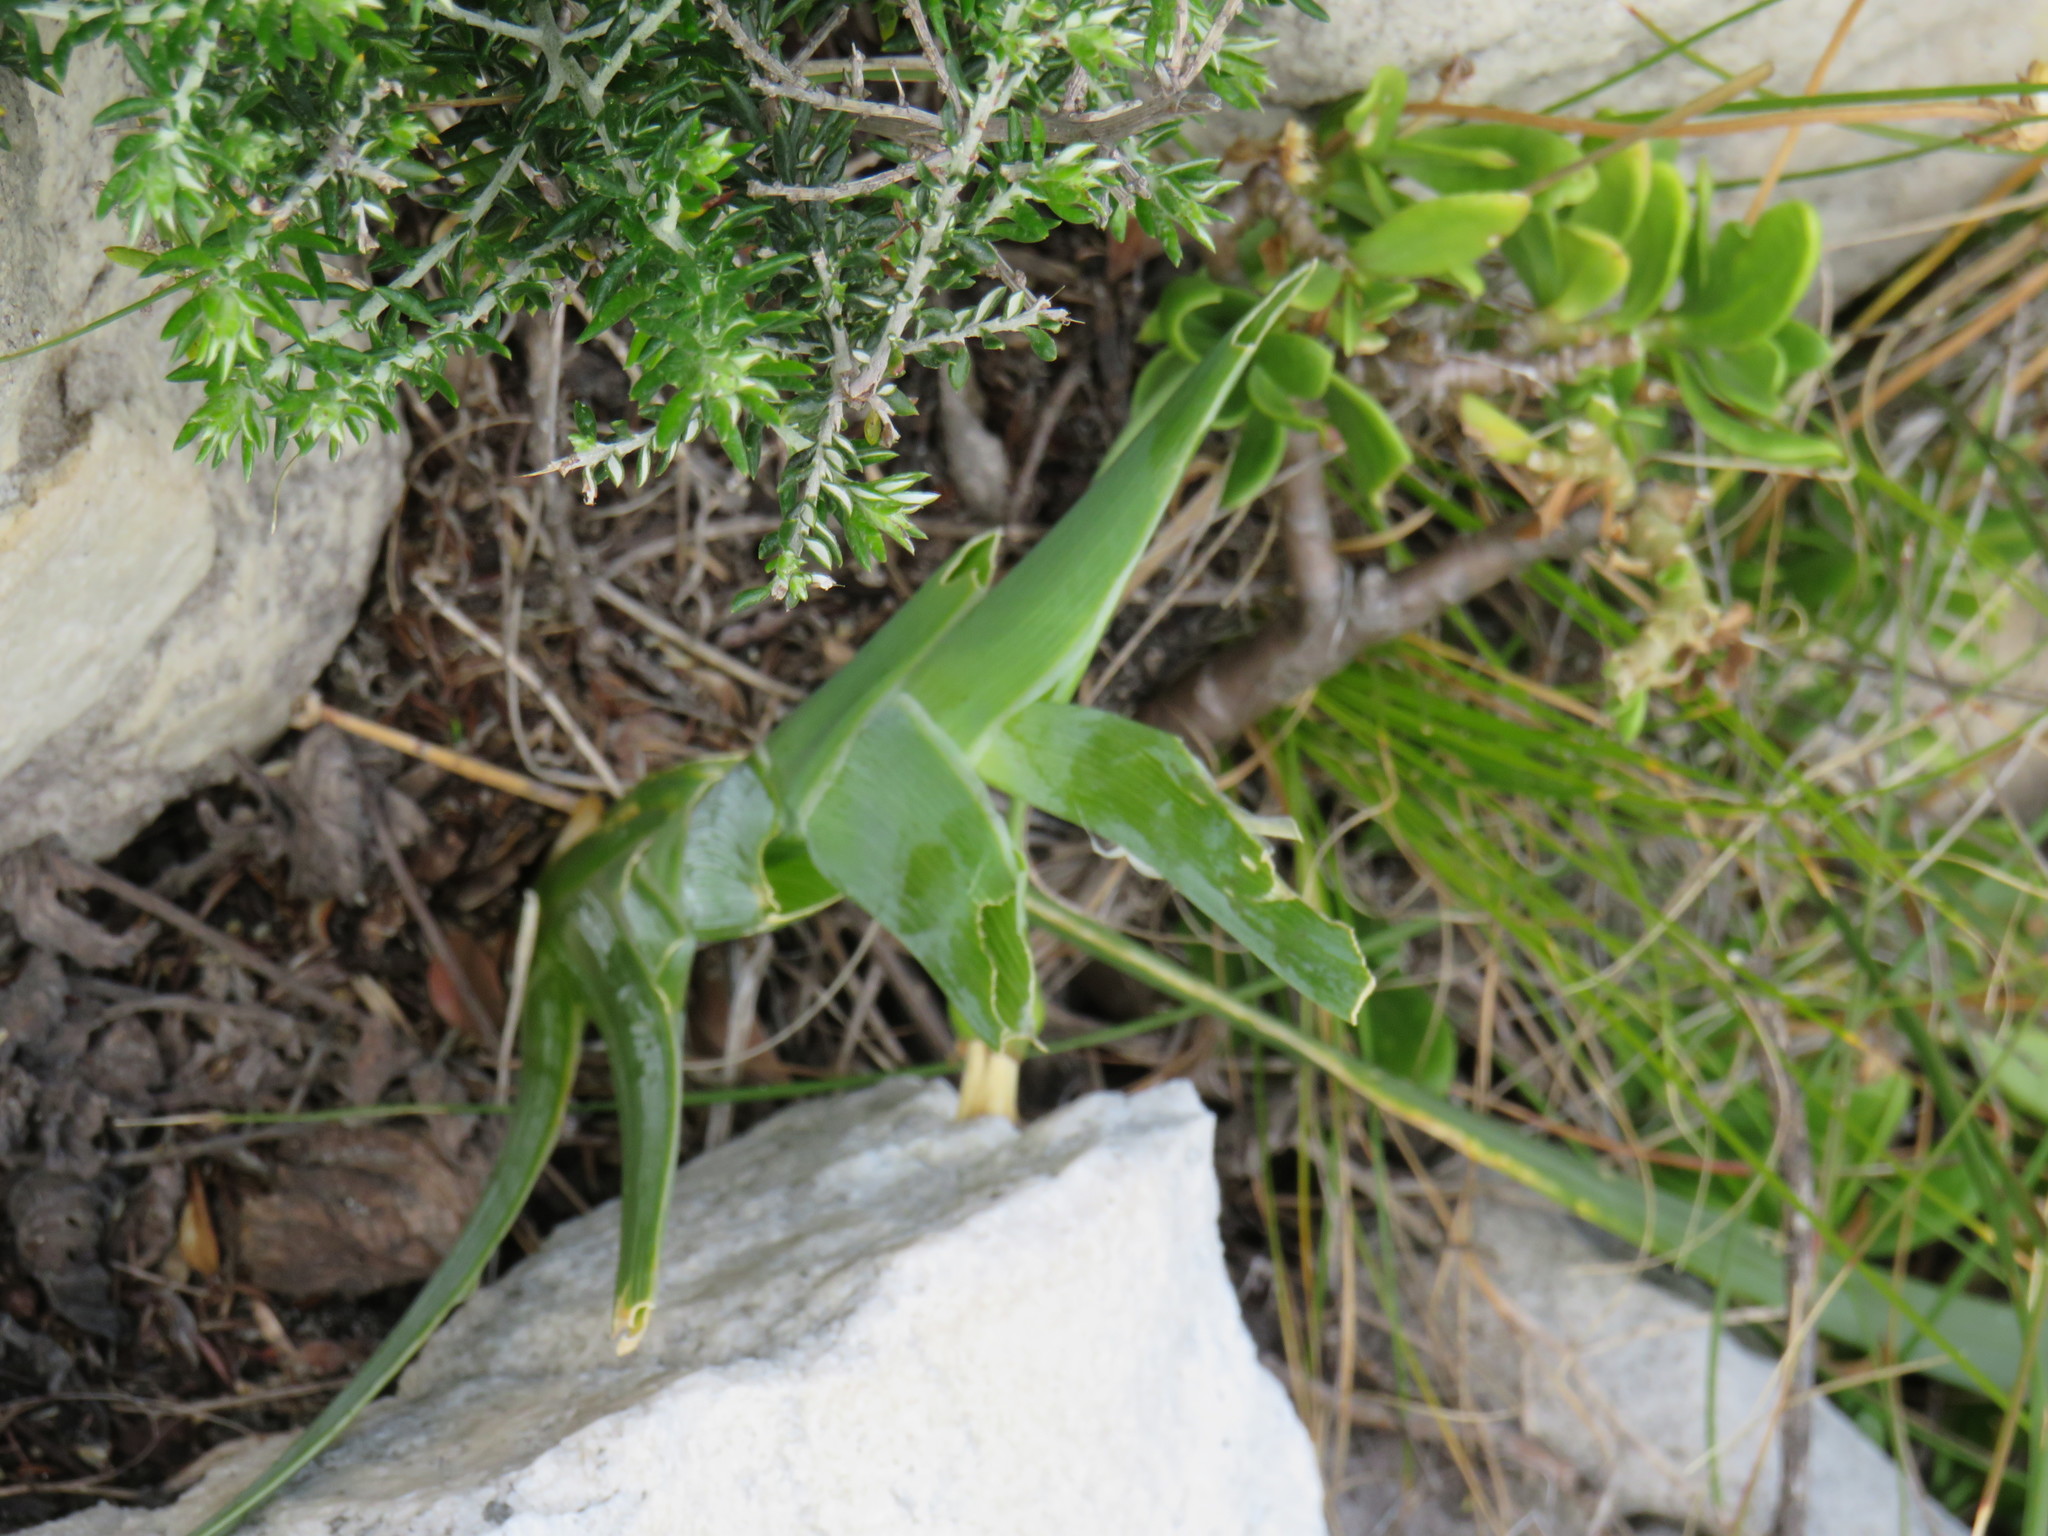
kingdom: Plantae
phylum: Tracheophyta
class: Liliopsida
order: Asparagales
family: Iridaceae
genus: Ferraria
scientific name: Ferraria crispa
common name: Black-flag
